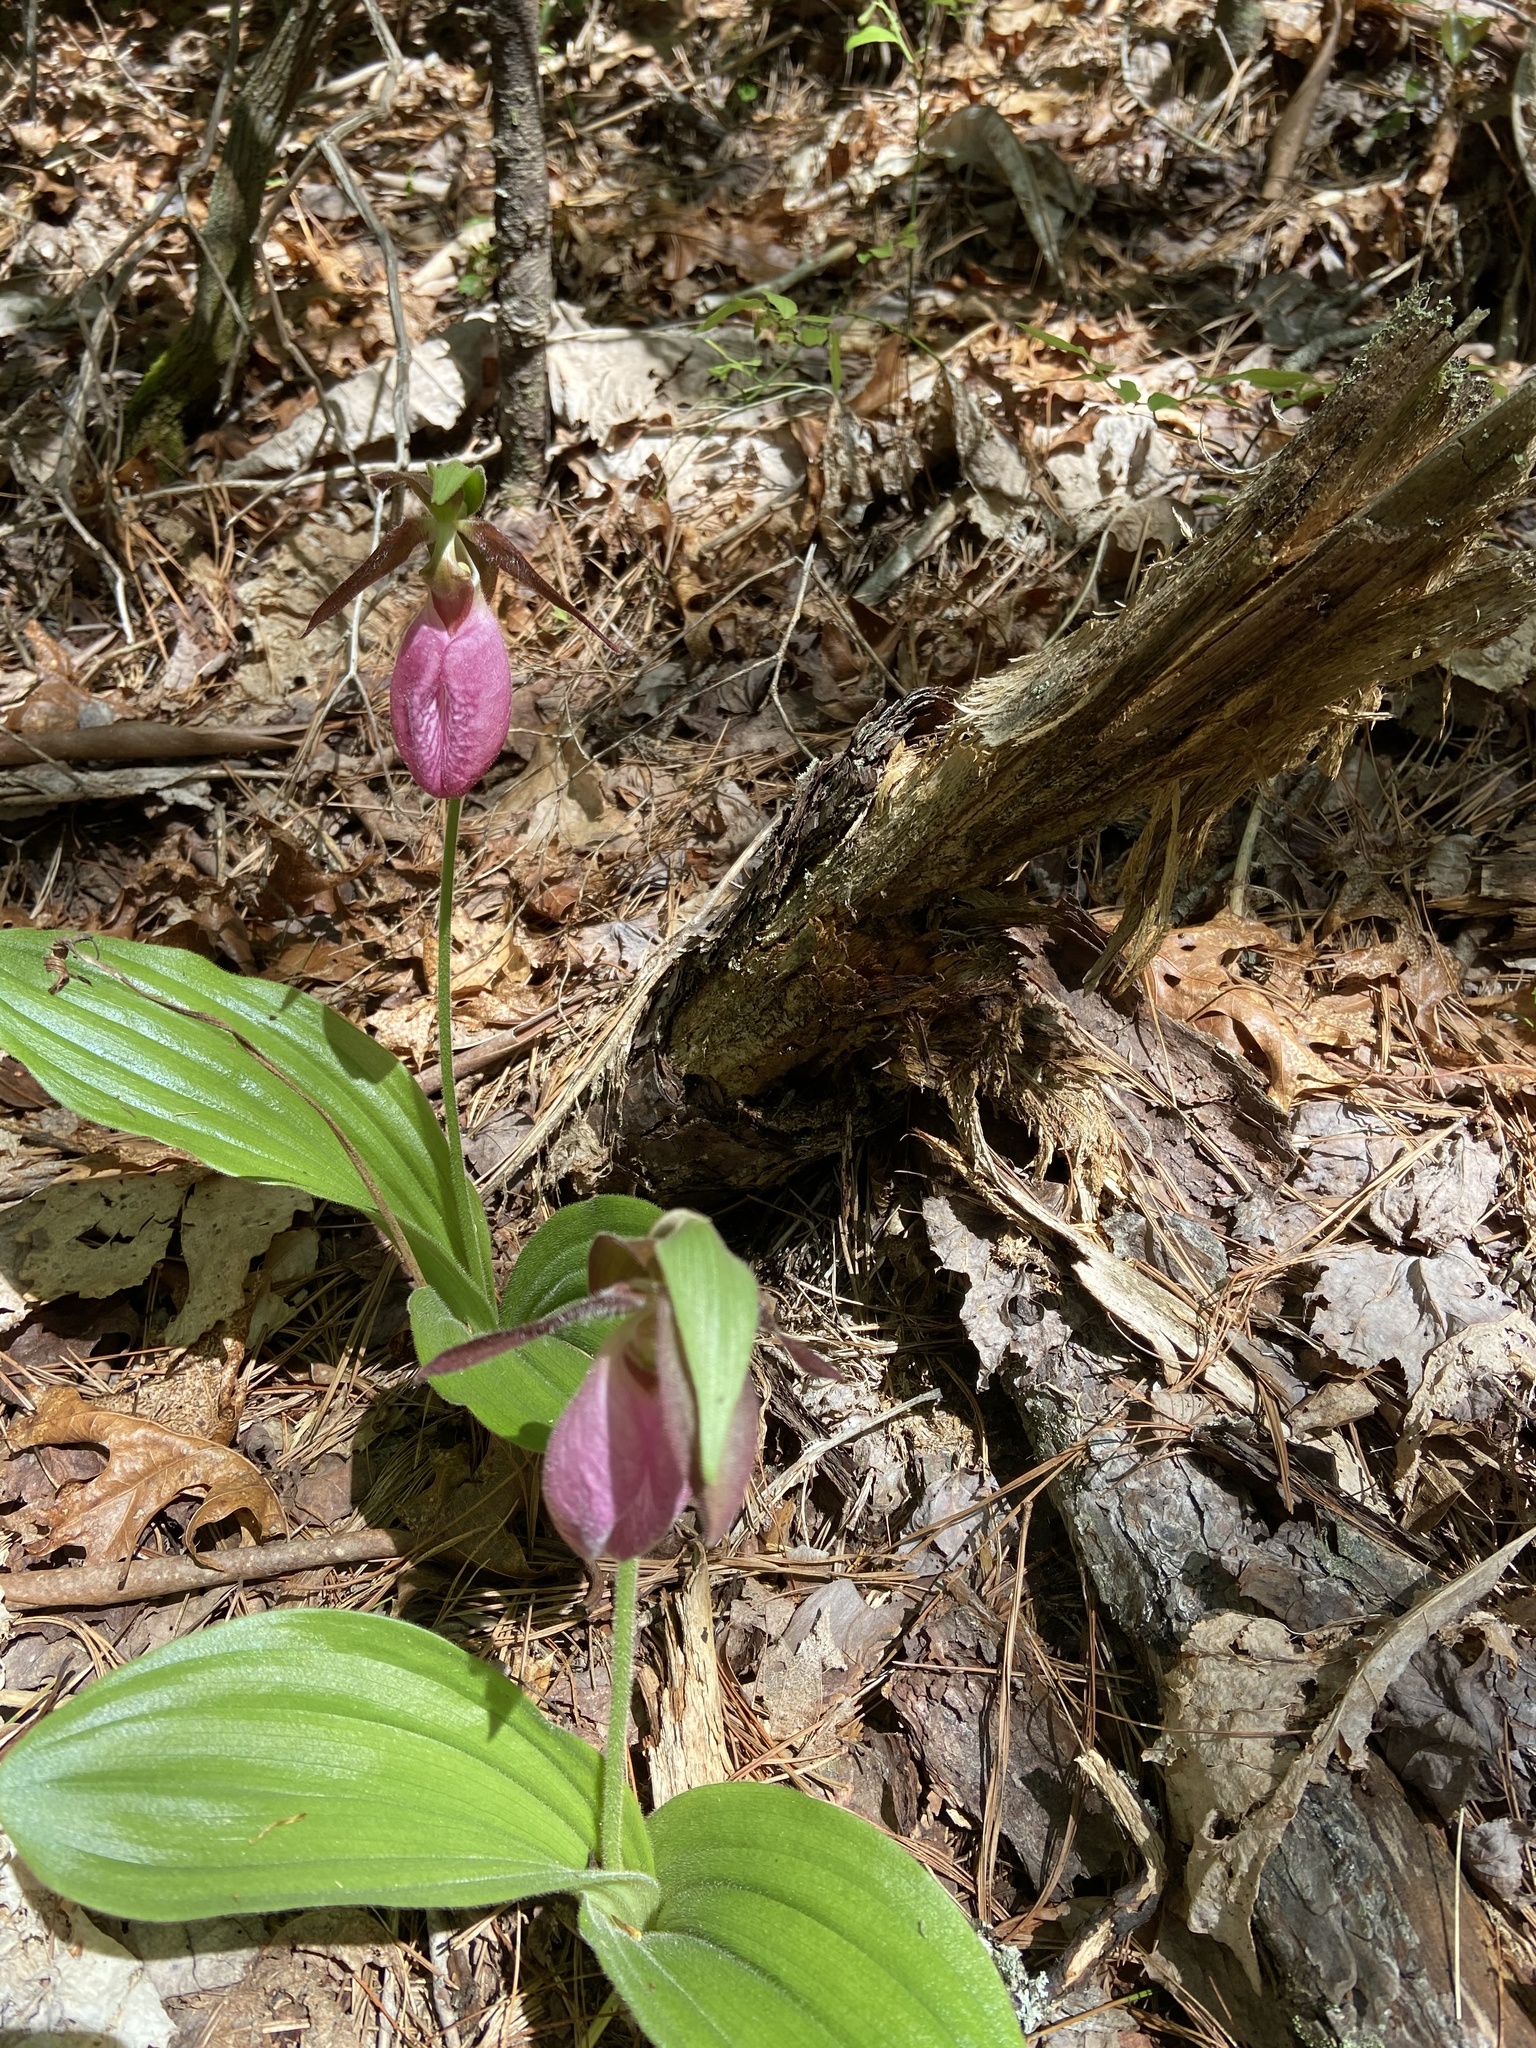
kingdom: Plantae
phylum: Tracheophyta
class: Liliopsida
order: Asparagales
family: Orchidaceae
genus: Cypripedium
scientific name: Cypripedium acaule
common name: Pink lady's-slipper
